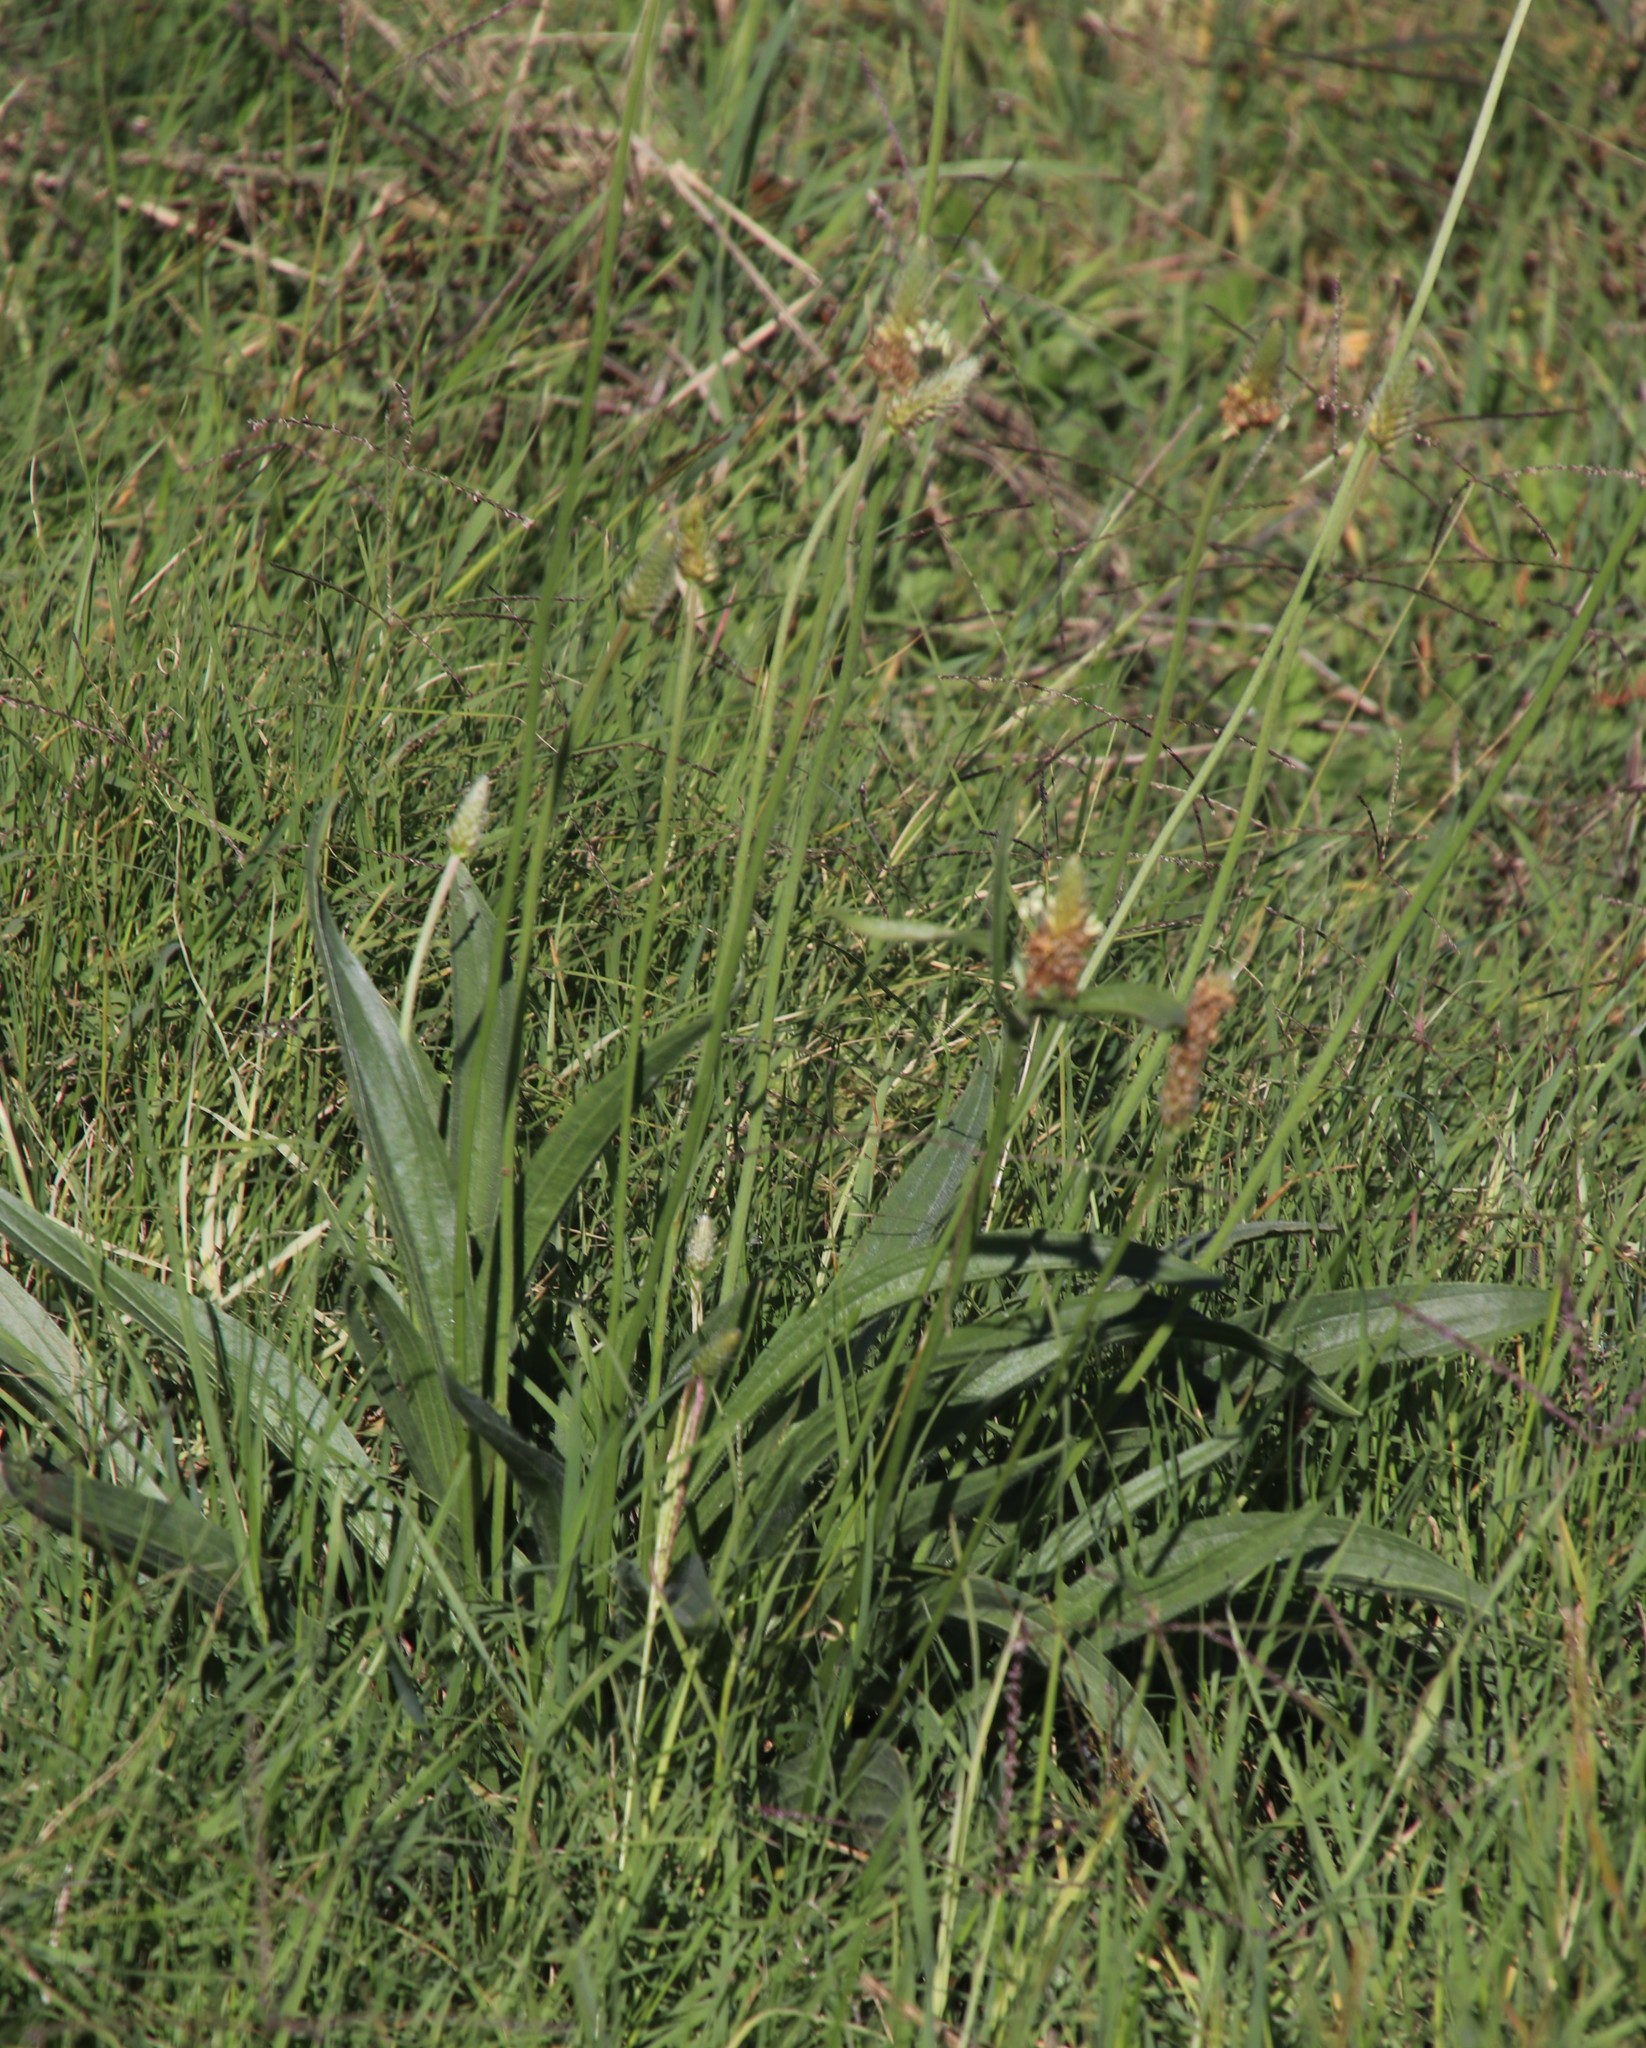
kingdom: Plantae
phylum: Tracheophyta
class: Magnoliopsida
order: Lamiales
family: Plantaginaceae
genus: Plantago
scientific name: Plantago lanceolata
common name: Ribwort plantain
